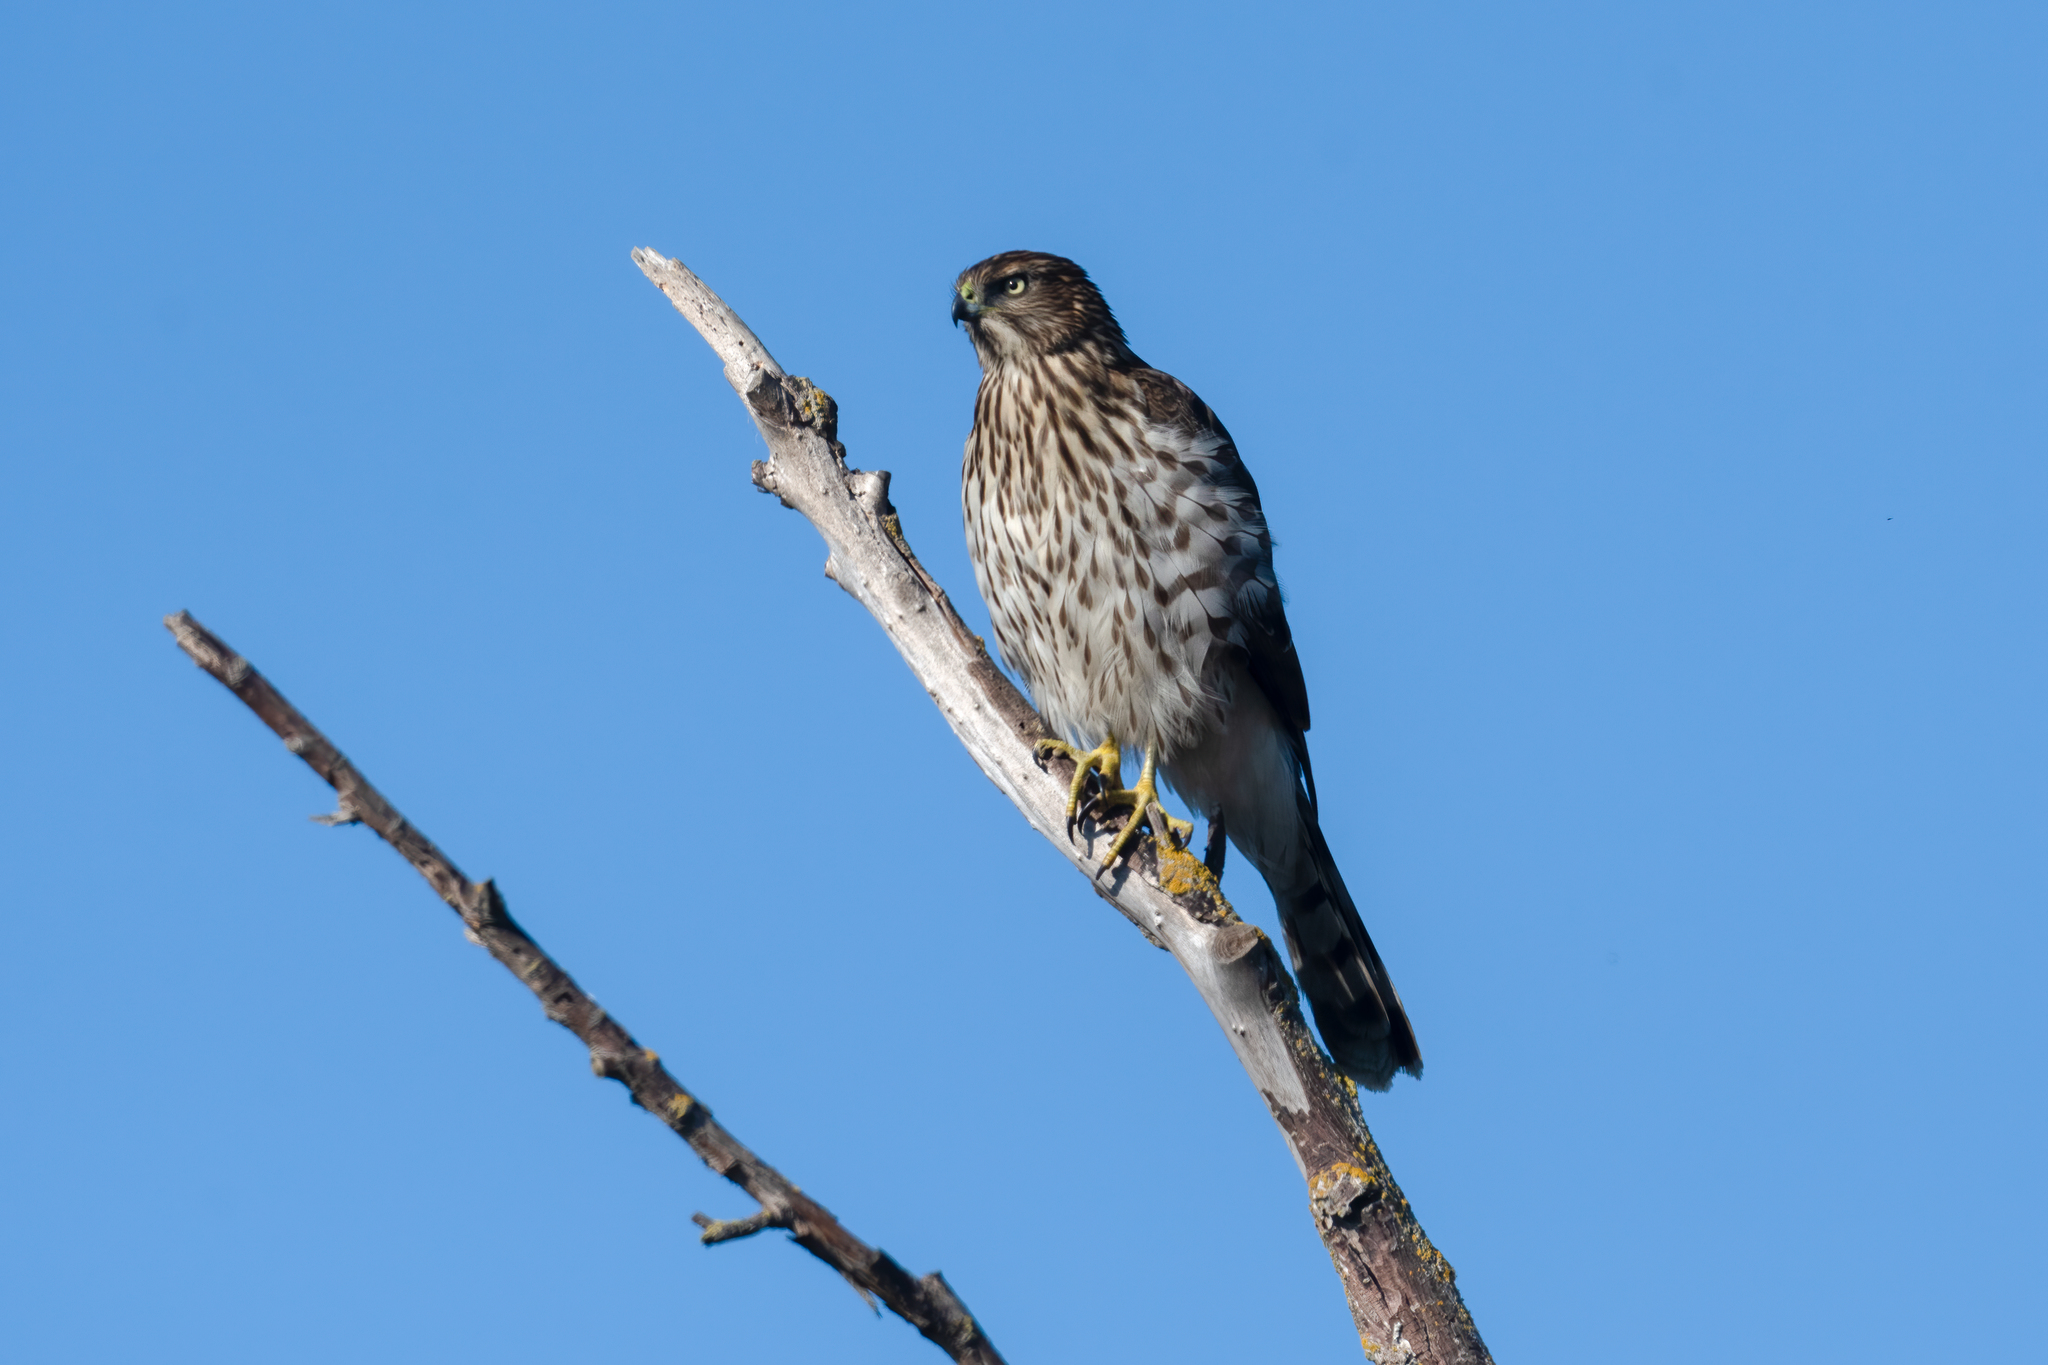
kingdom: Animalia
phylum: Chordata
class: Aves
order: Accipitriformes
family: Accipitridae
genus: Accipiter
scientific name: Accipiter cooperii
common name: Cooper's hawk
